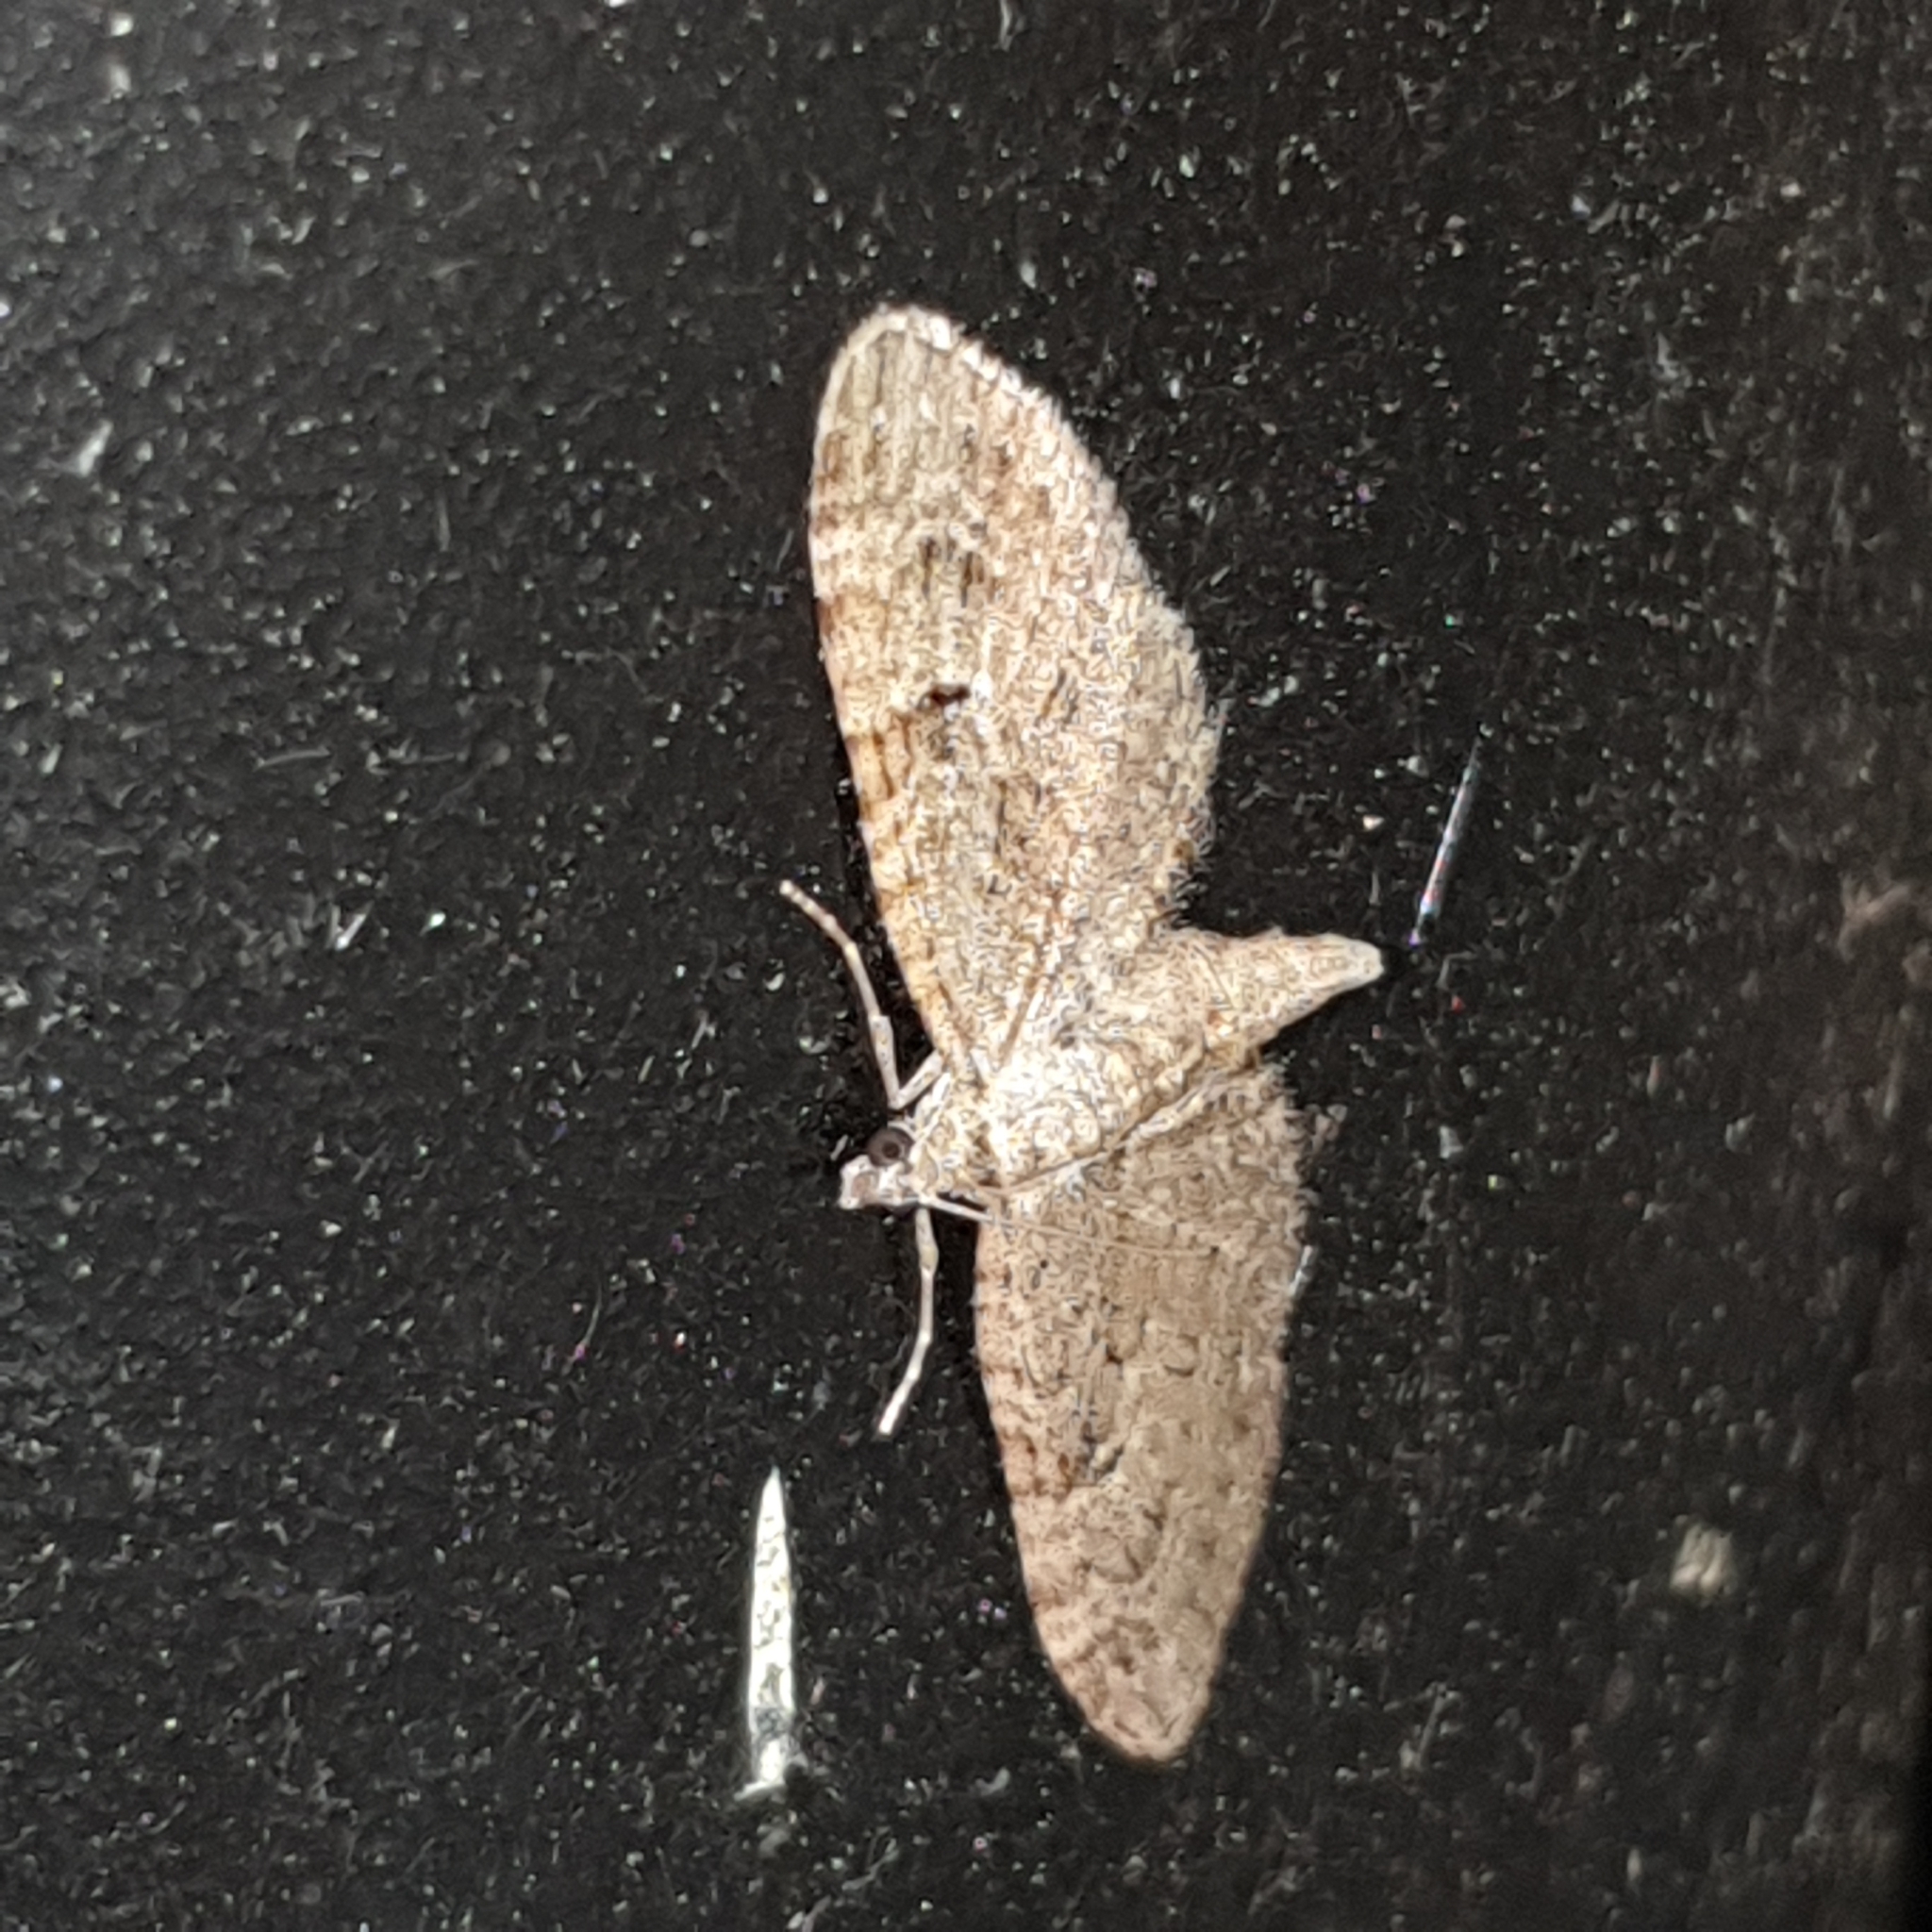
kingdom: Animalia
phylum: Arthropoda
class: Insecta
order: Lepidoptera
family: Geometridae
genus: Eupithecia
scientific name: Eupithecia pusillata
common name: Juniper pug
